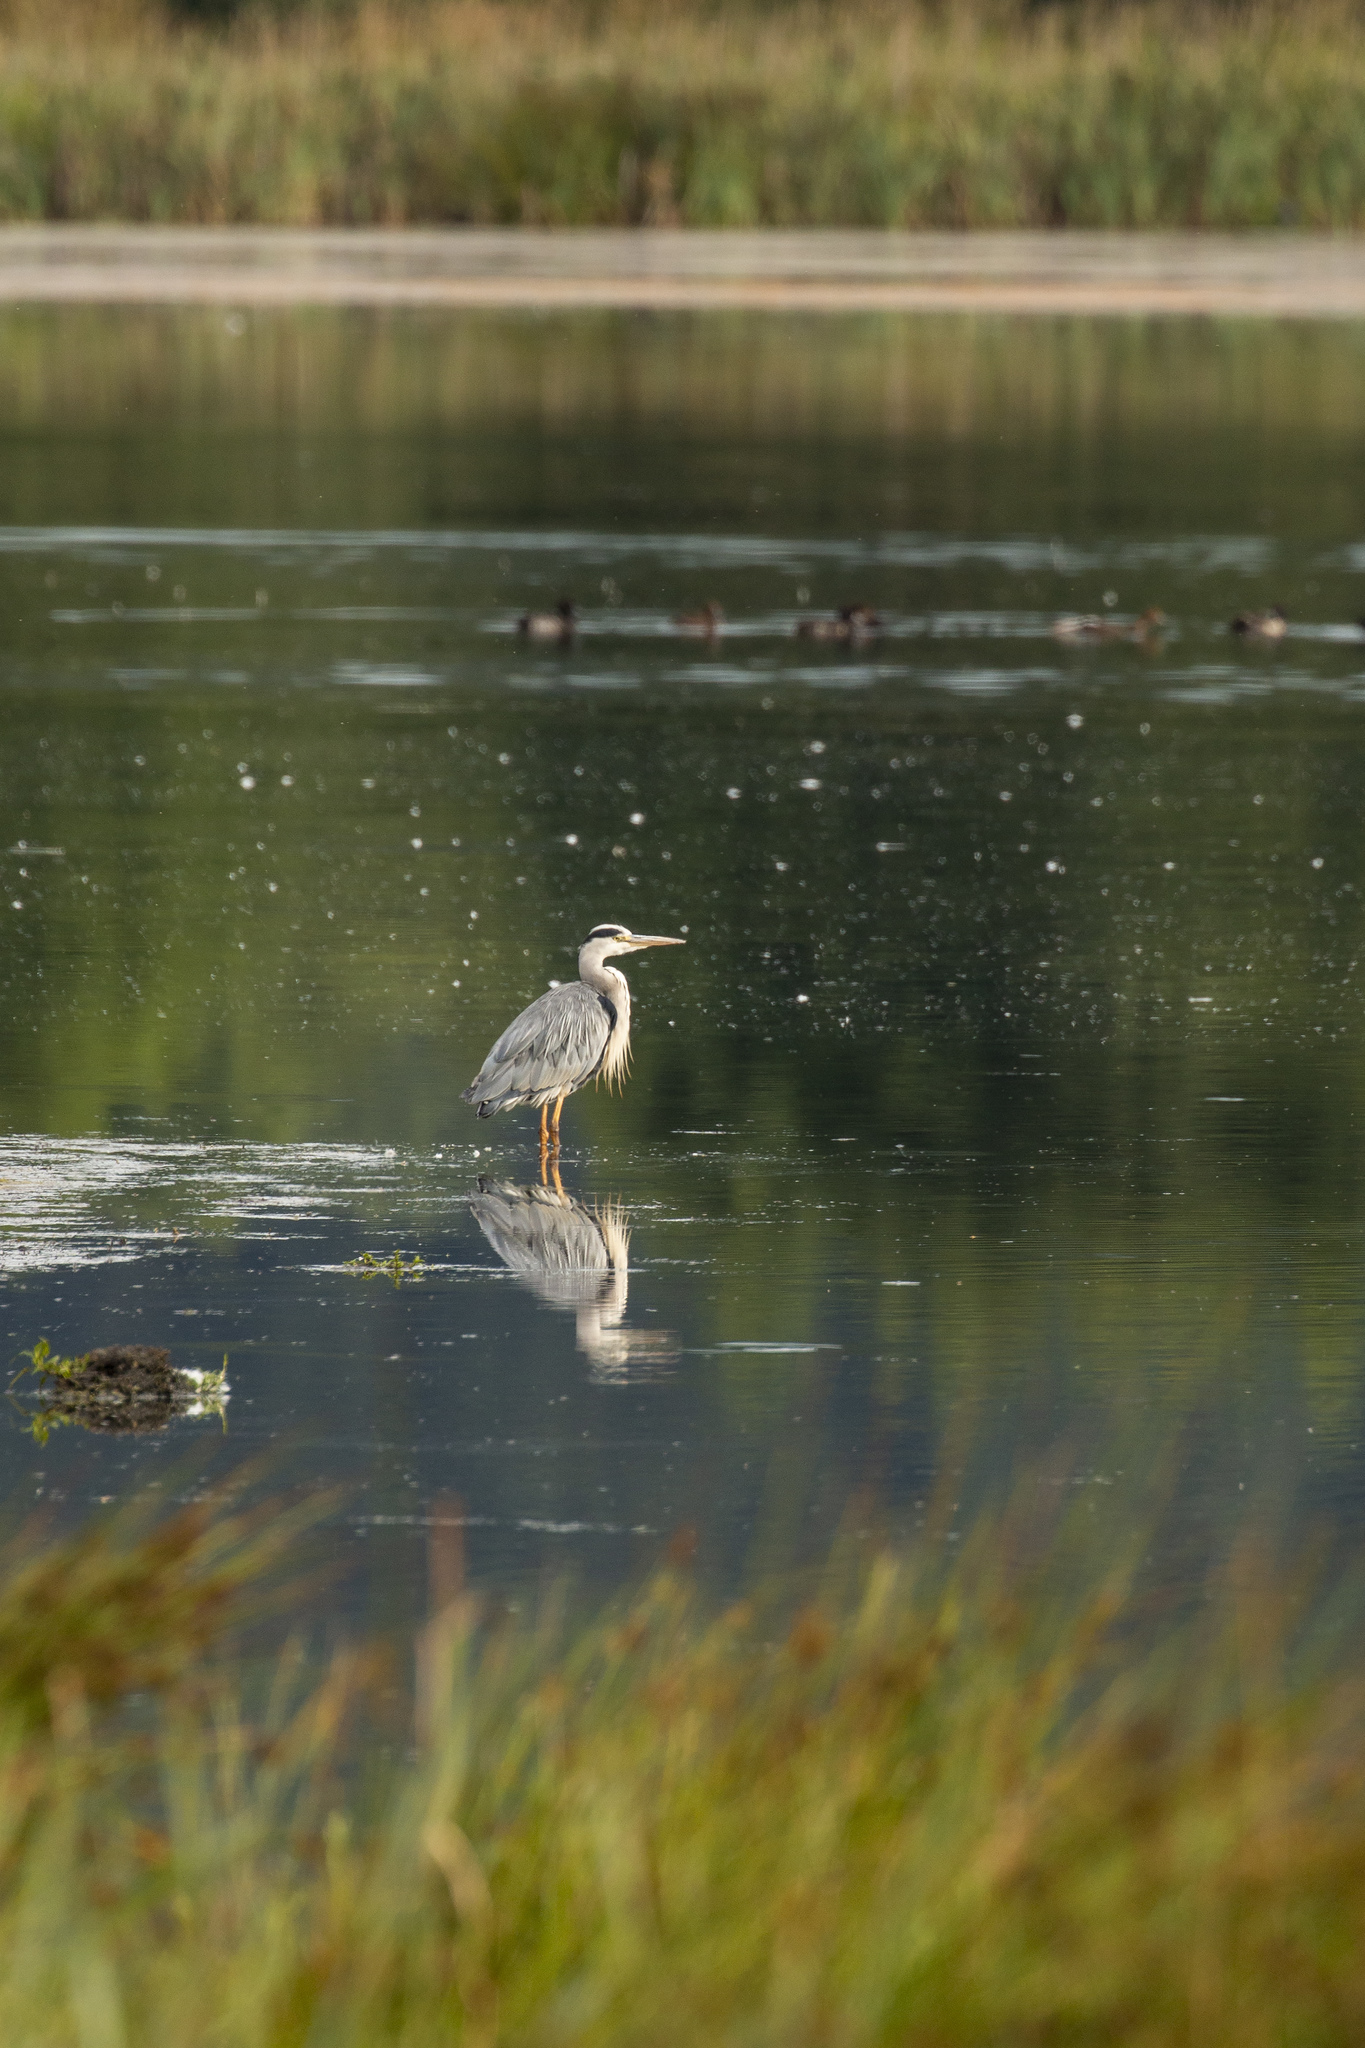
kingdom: Animalia
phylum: Chordata
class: Aves
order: Pelecaniformes
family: Ardeidae
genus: Ardea
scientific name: Ardea cinerea
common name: Grey heron
